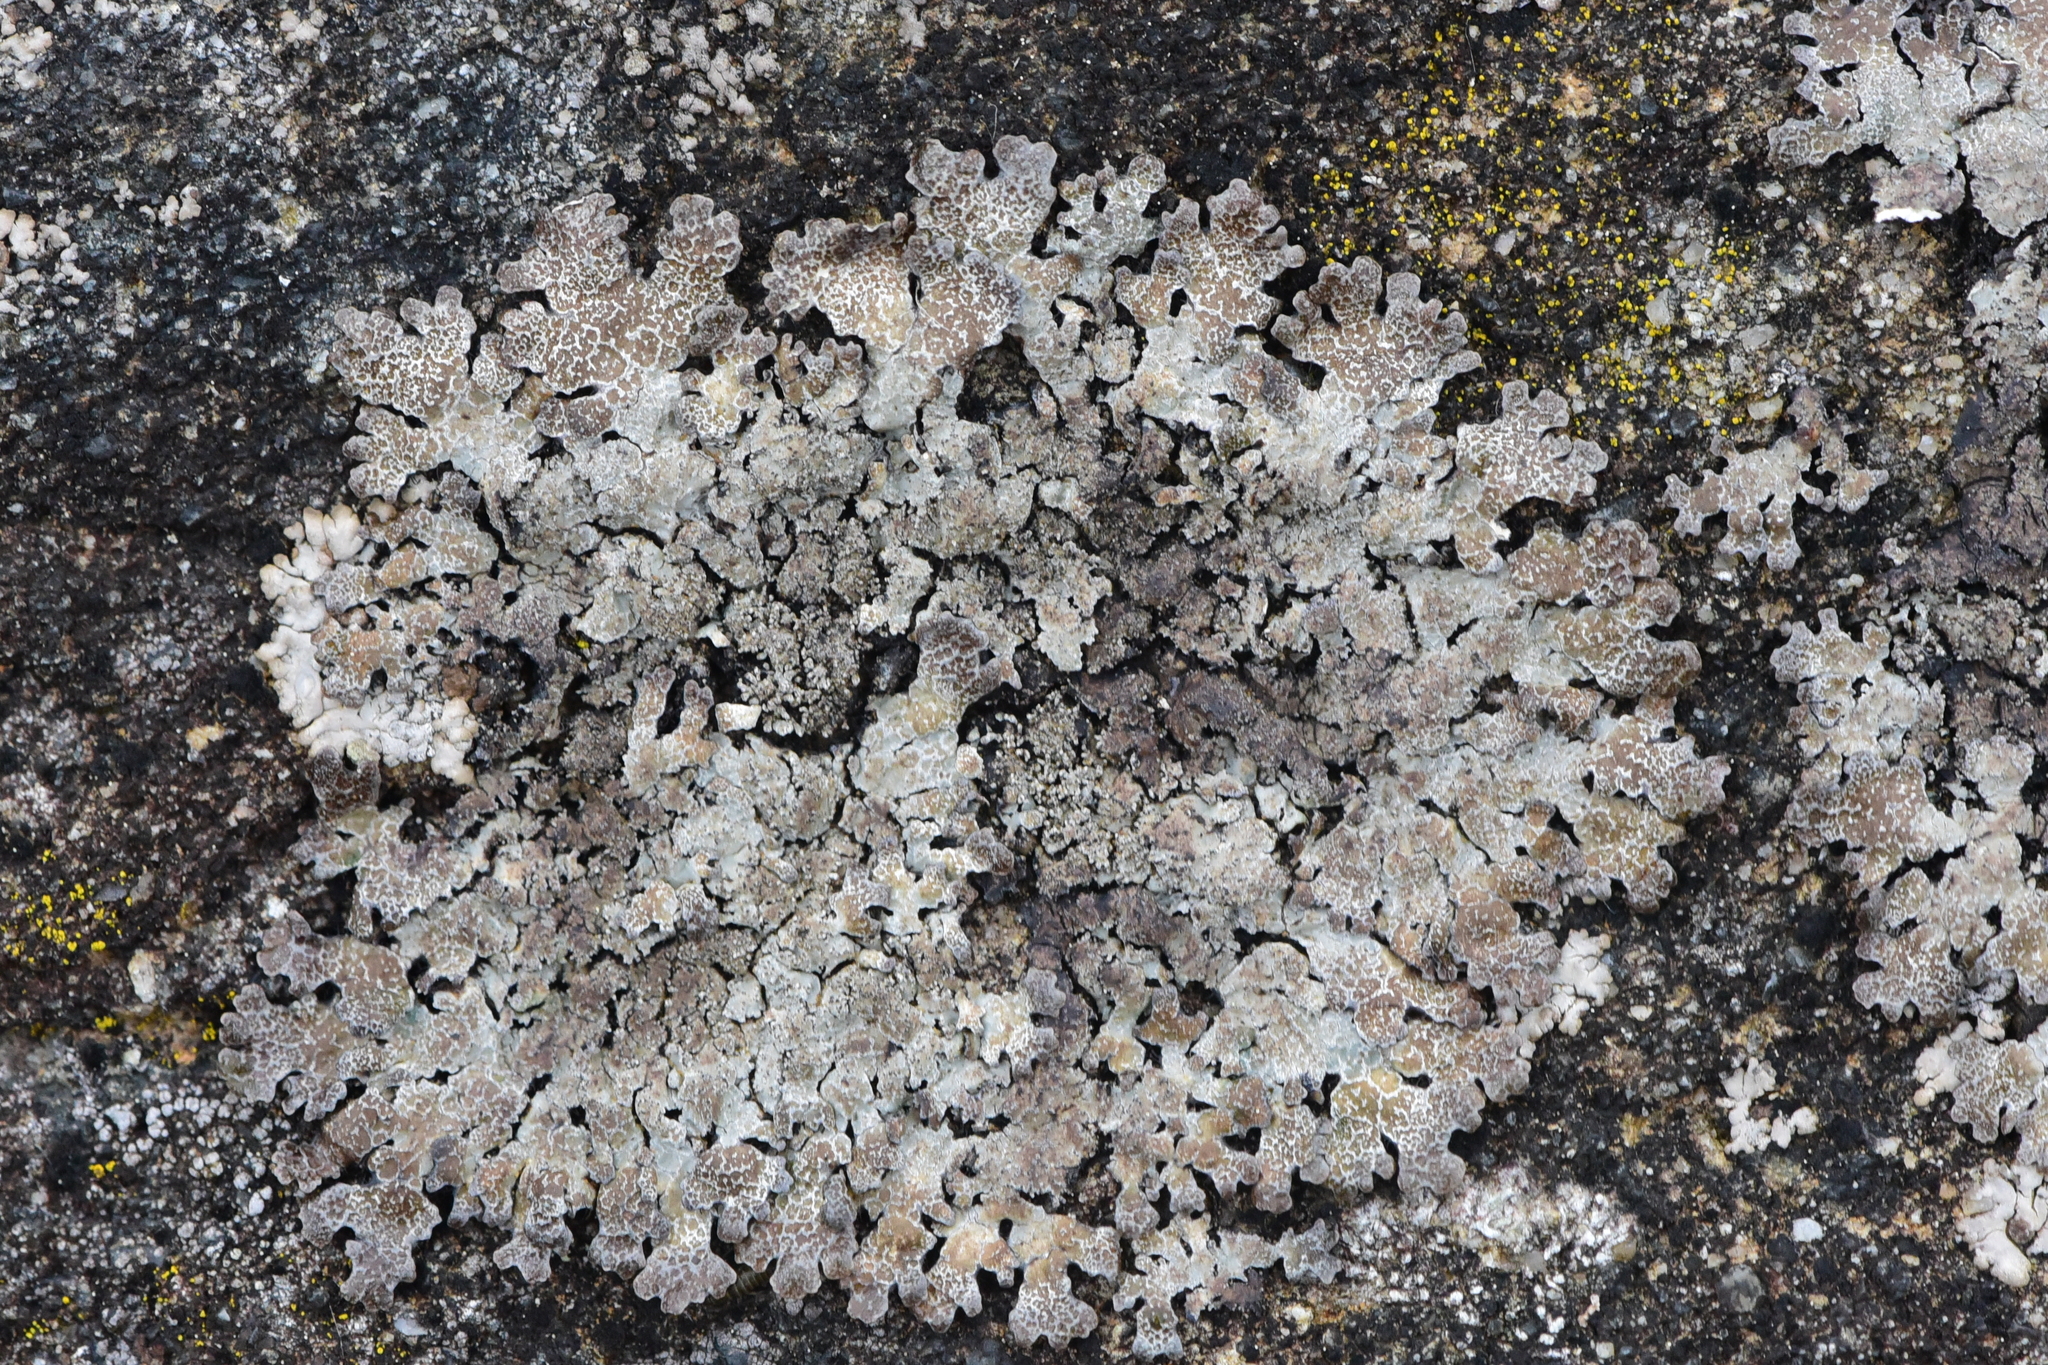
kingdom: Fungi
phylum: Ascomycota
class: Lecanoromycetes
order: Lecanorales
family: Parmeliaceae
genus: Parmelia
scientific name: Parmelia saxatilis
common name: Salted shield lichen
